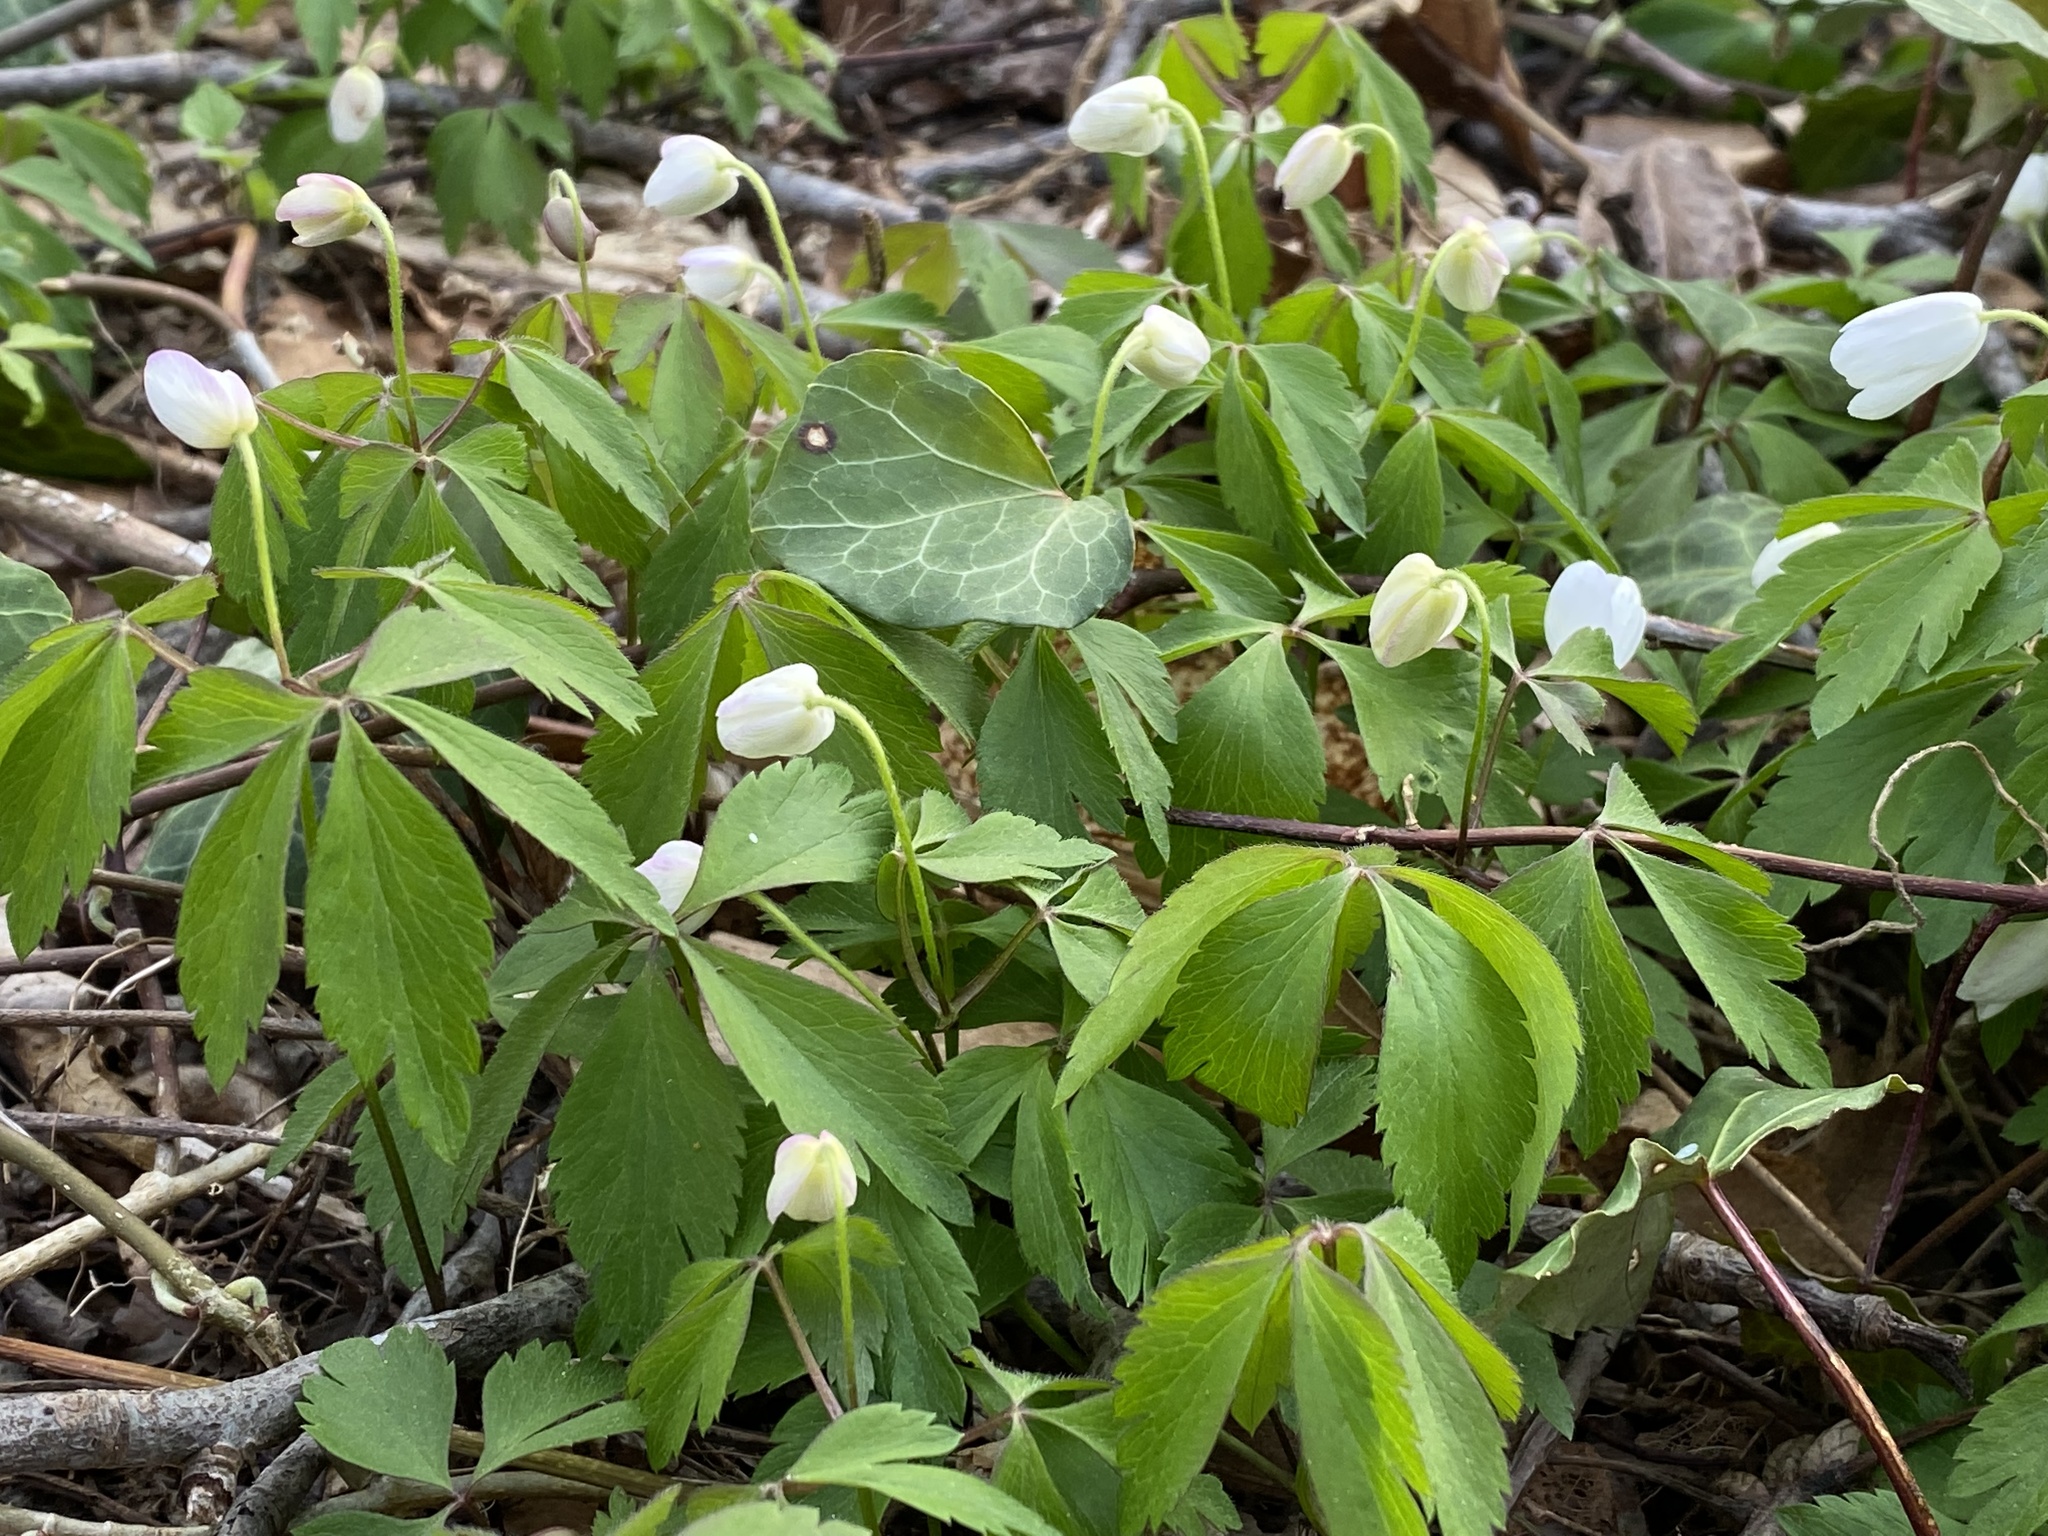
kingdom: Plantae
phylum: Tracheophyta
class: Magnoliopsida
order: Ranunculales
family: Ranunculaceae
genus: Anemone
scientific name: Anemone quinquefolia
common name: Wood anemone
